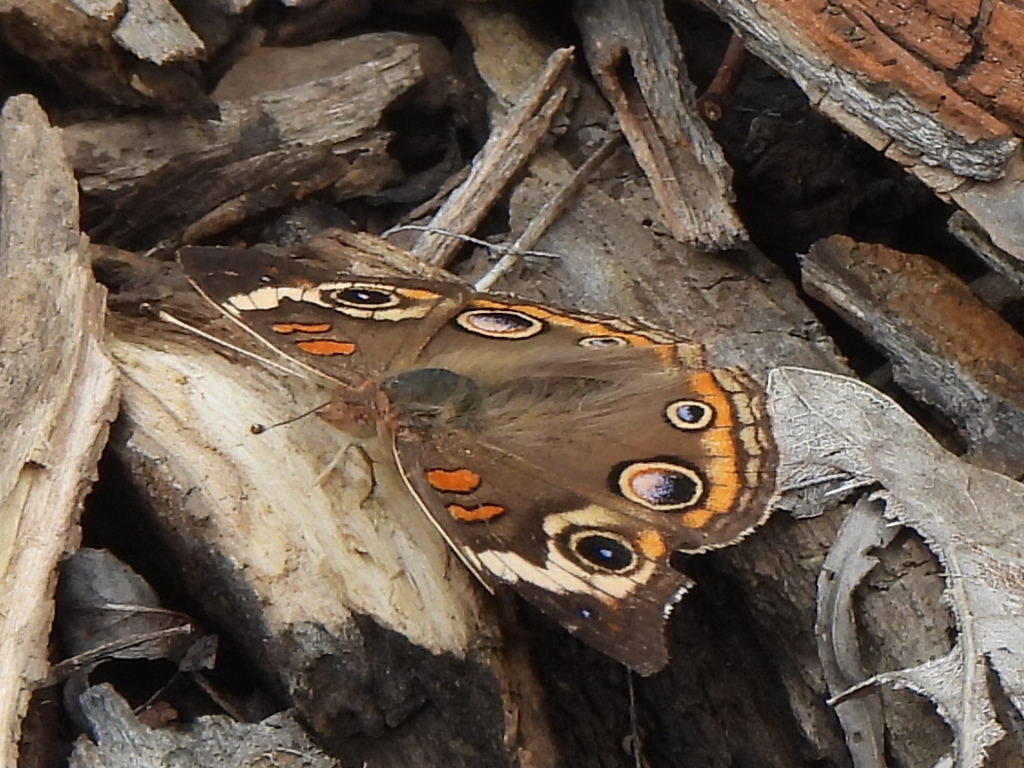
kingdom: Animalia
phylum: Arthropoda
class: Insecta
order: Lepidoptera
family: Nymphalidae
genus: Junonia
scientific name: Junonia coenia
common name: Common buckeye
